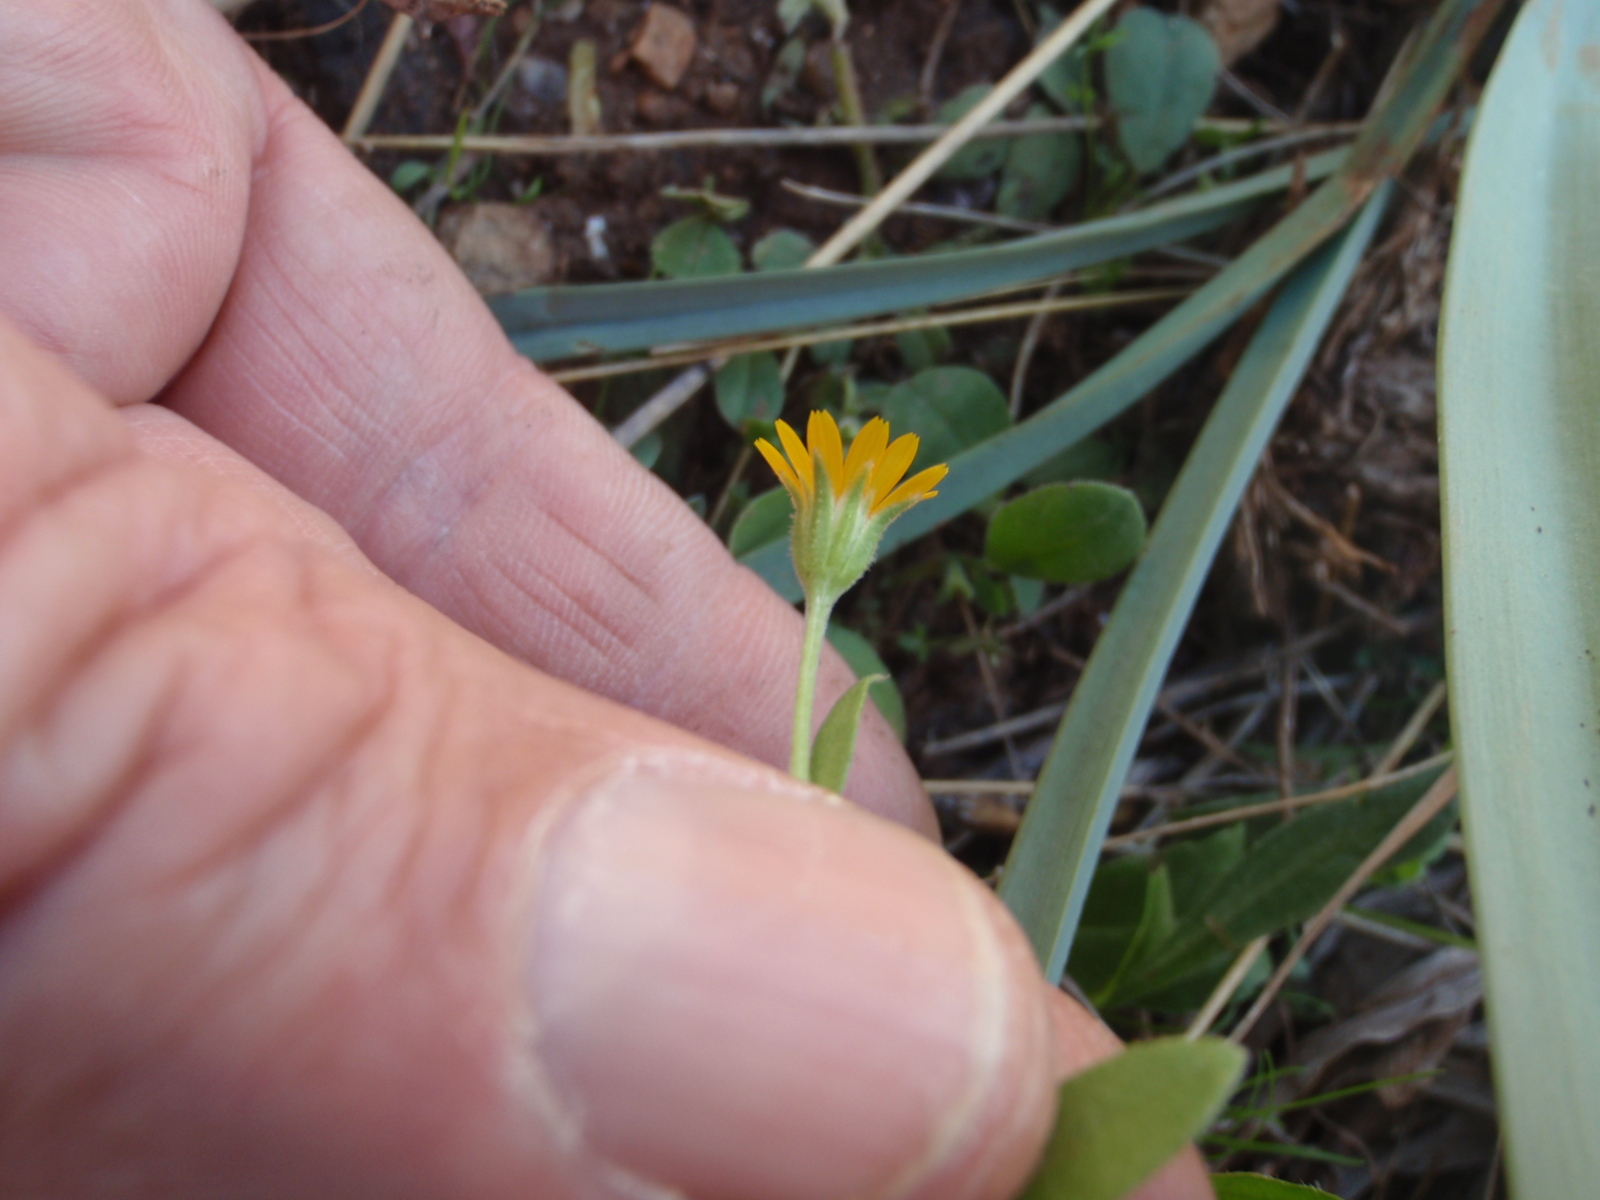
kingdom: Plantae
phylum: Tracheophyta
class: Magnoliopsida
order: Asterales
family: Asteraceae
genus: Calendula
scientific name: Calendula arvensis
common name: Field marigold
